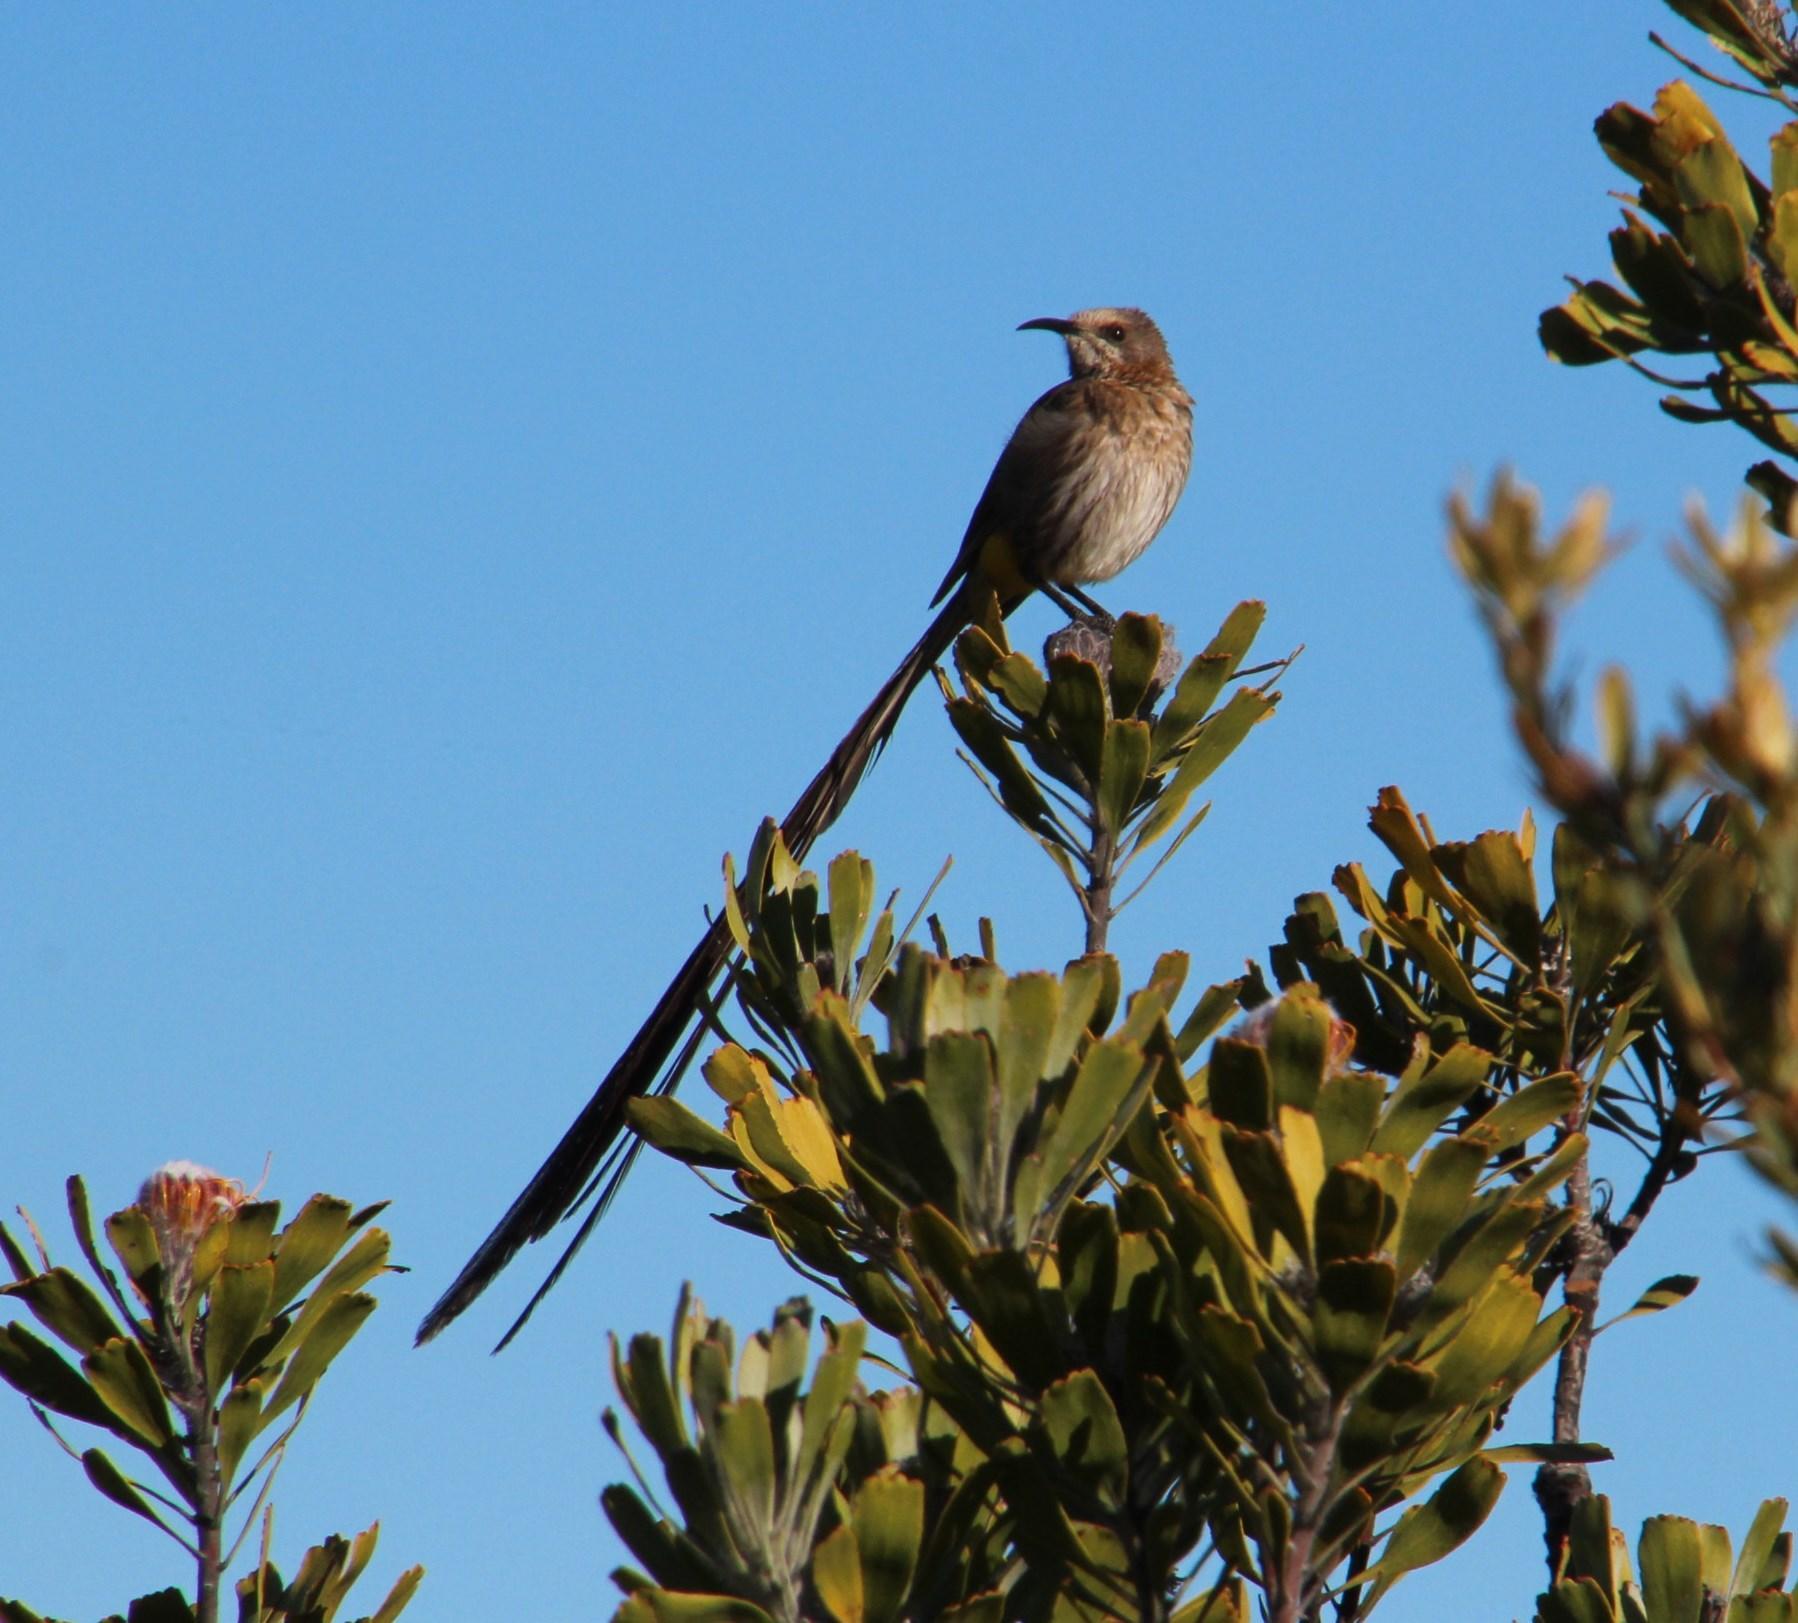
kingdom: Animalia
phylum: Chordata
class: Aves
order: Passeriformes
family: Promeropidae
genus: Promerops
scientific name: Promerops cafer
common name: Cape sugarbird
